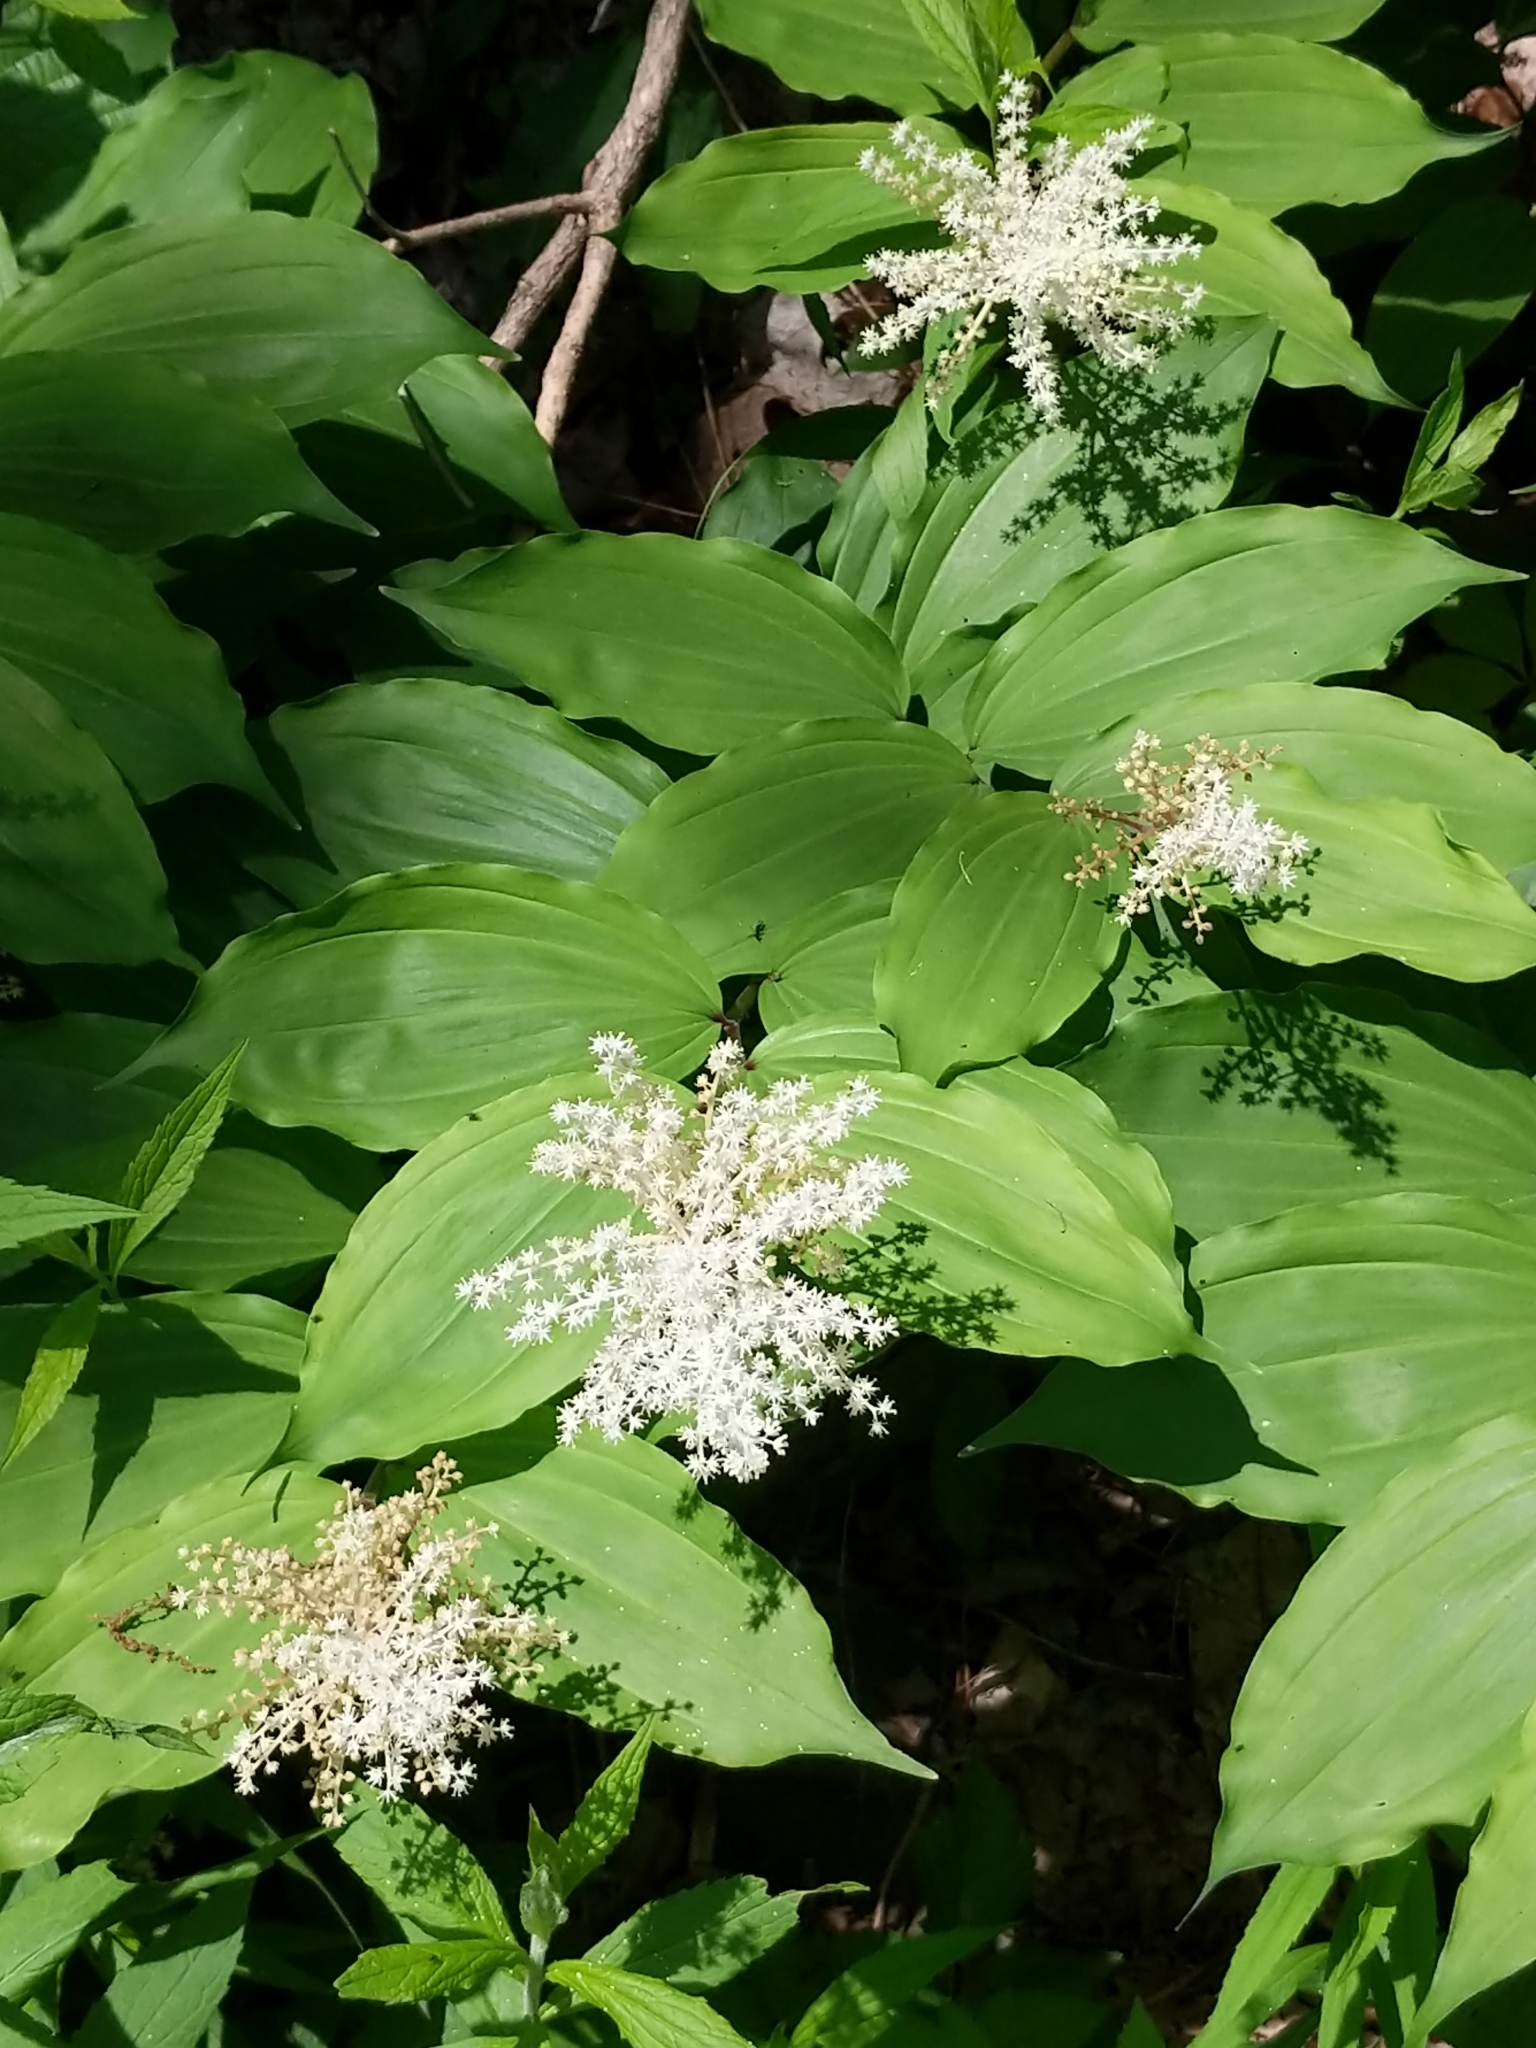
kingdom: Plantae
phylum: Tracheophyta
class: Liliopsida
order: Asparagales
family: Asparagaceae
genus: Maianthemum
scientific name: Maianthemum racemosum
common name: False spikenard
